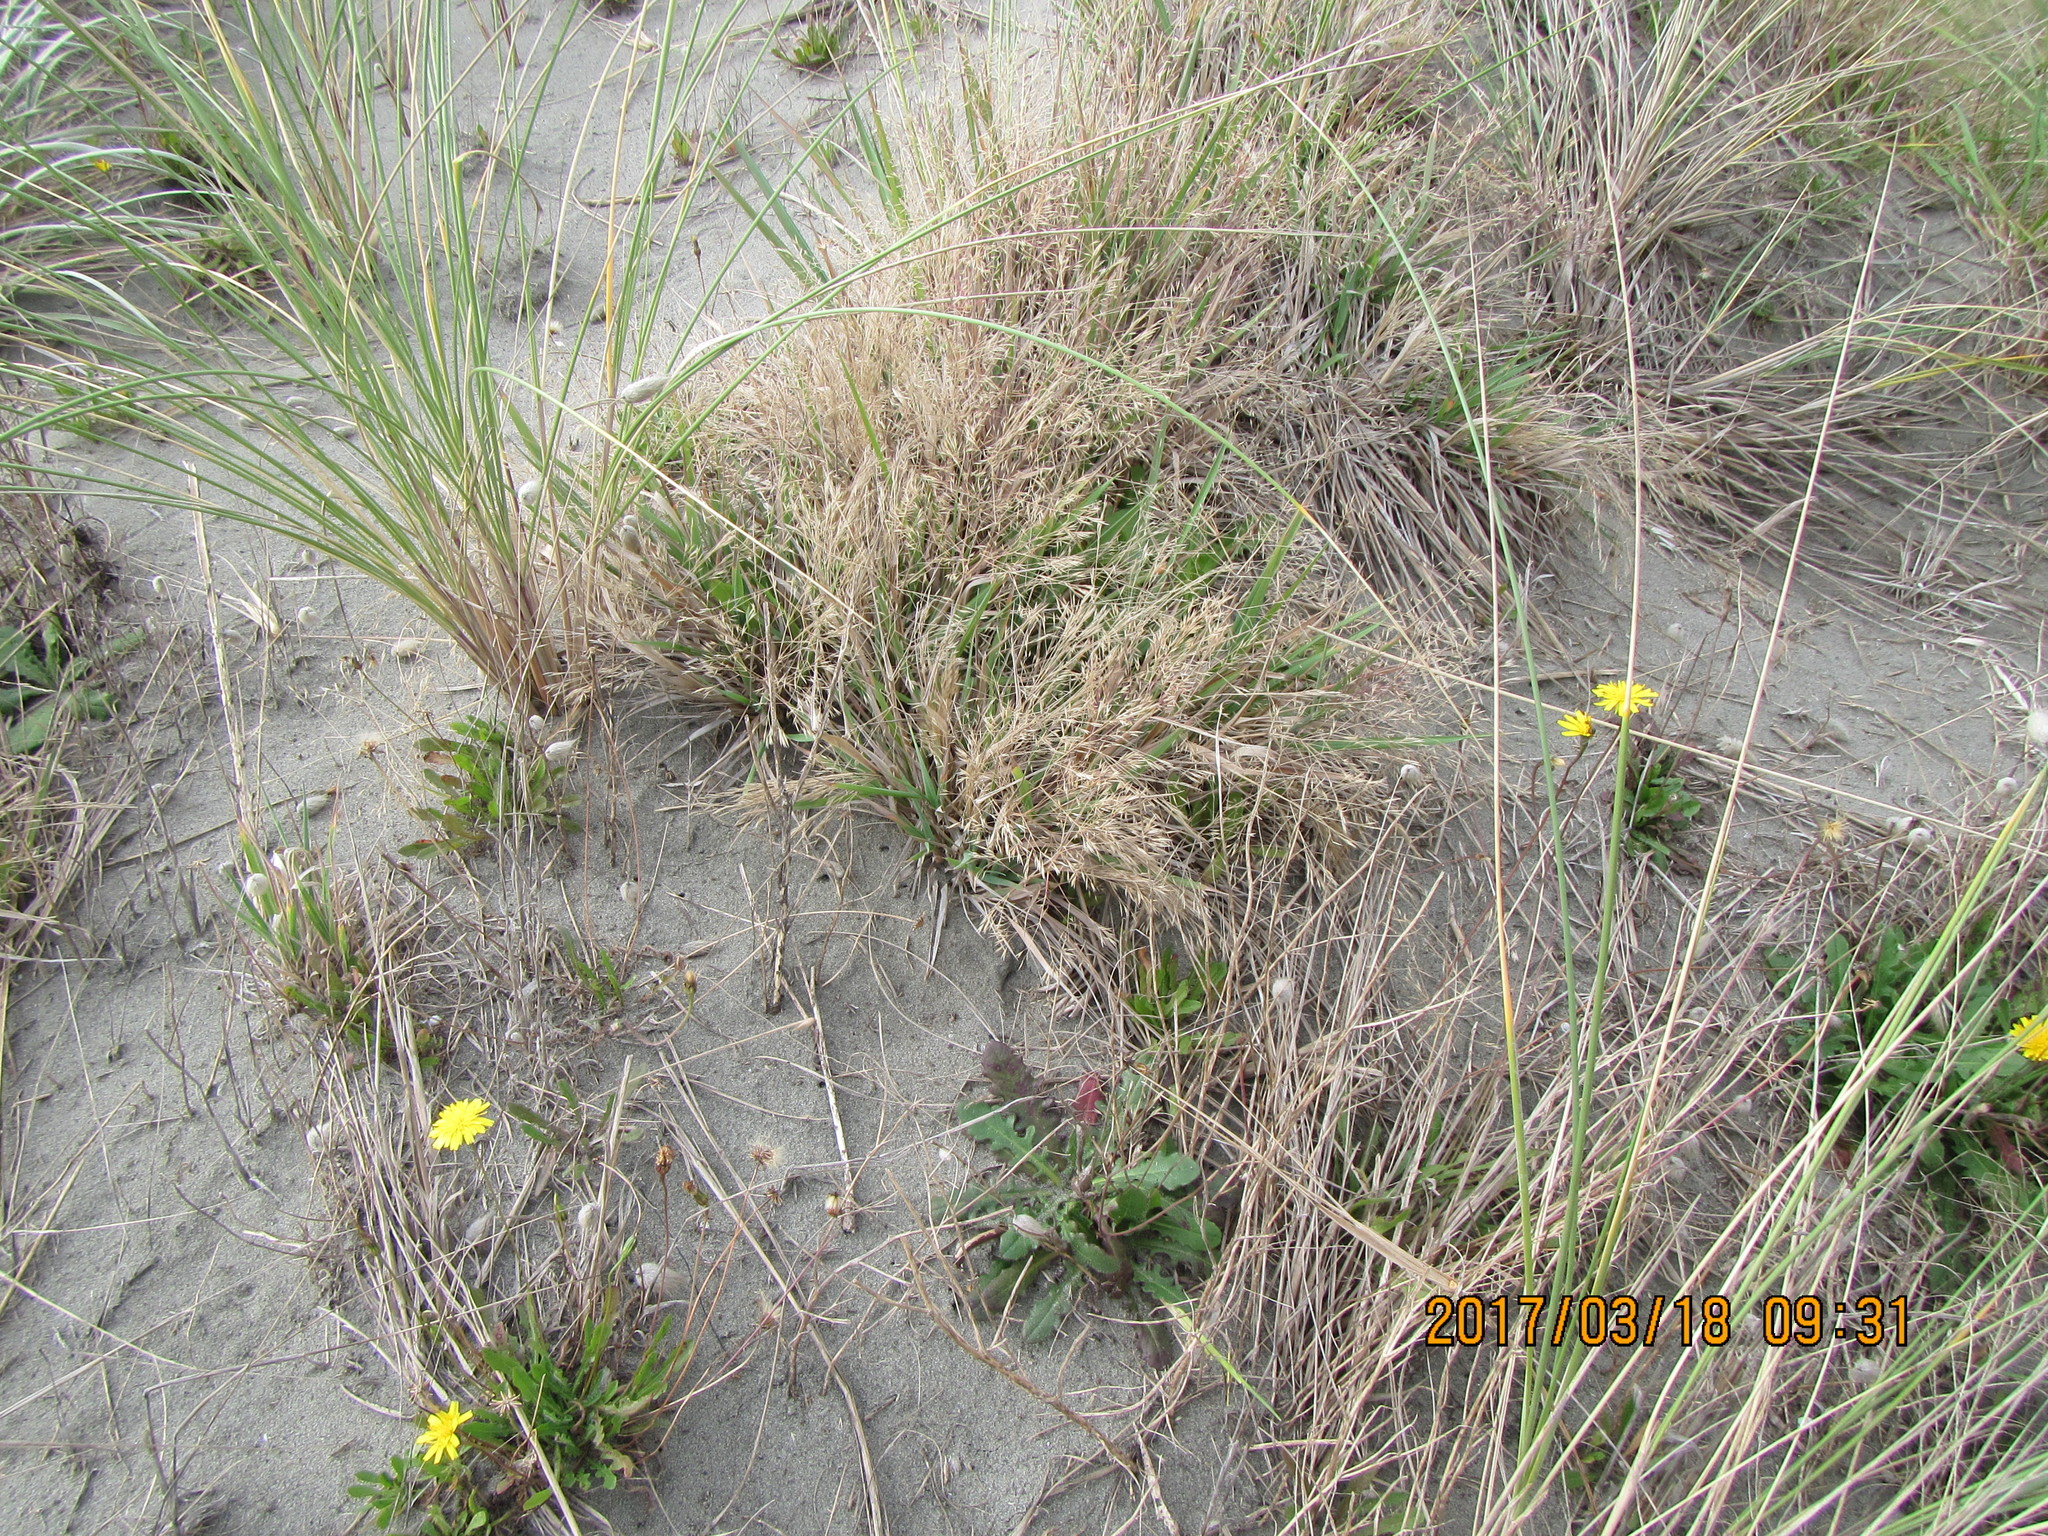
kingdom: Plantae
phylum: Tracheophyta
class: Liliopsida
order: Poales
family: Poaceae
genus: Lachnagrostis
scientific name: Lachnagrostis billardierei
